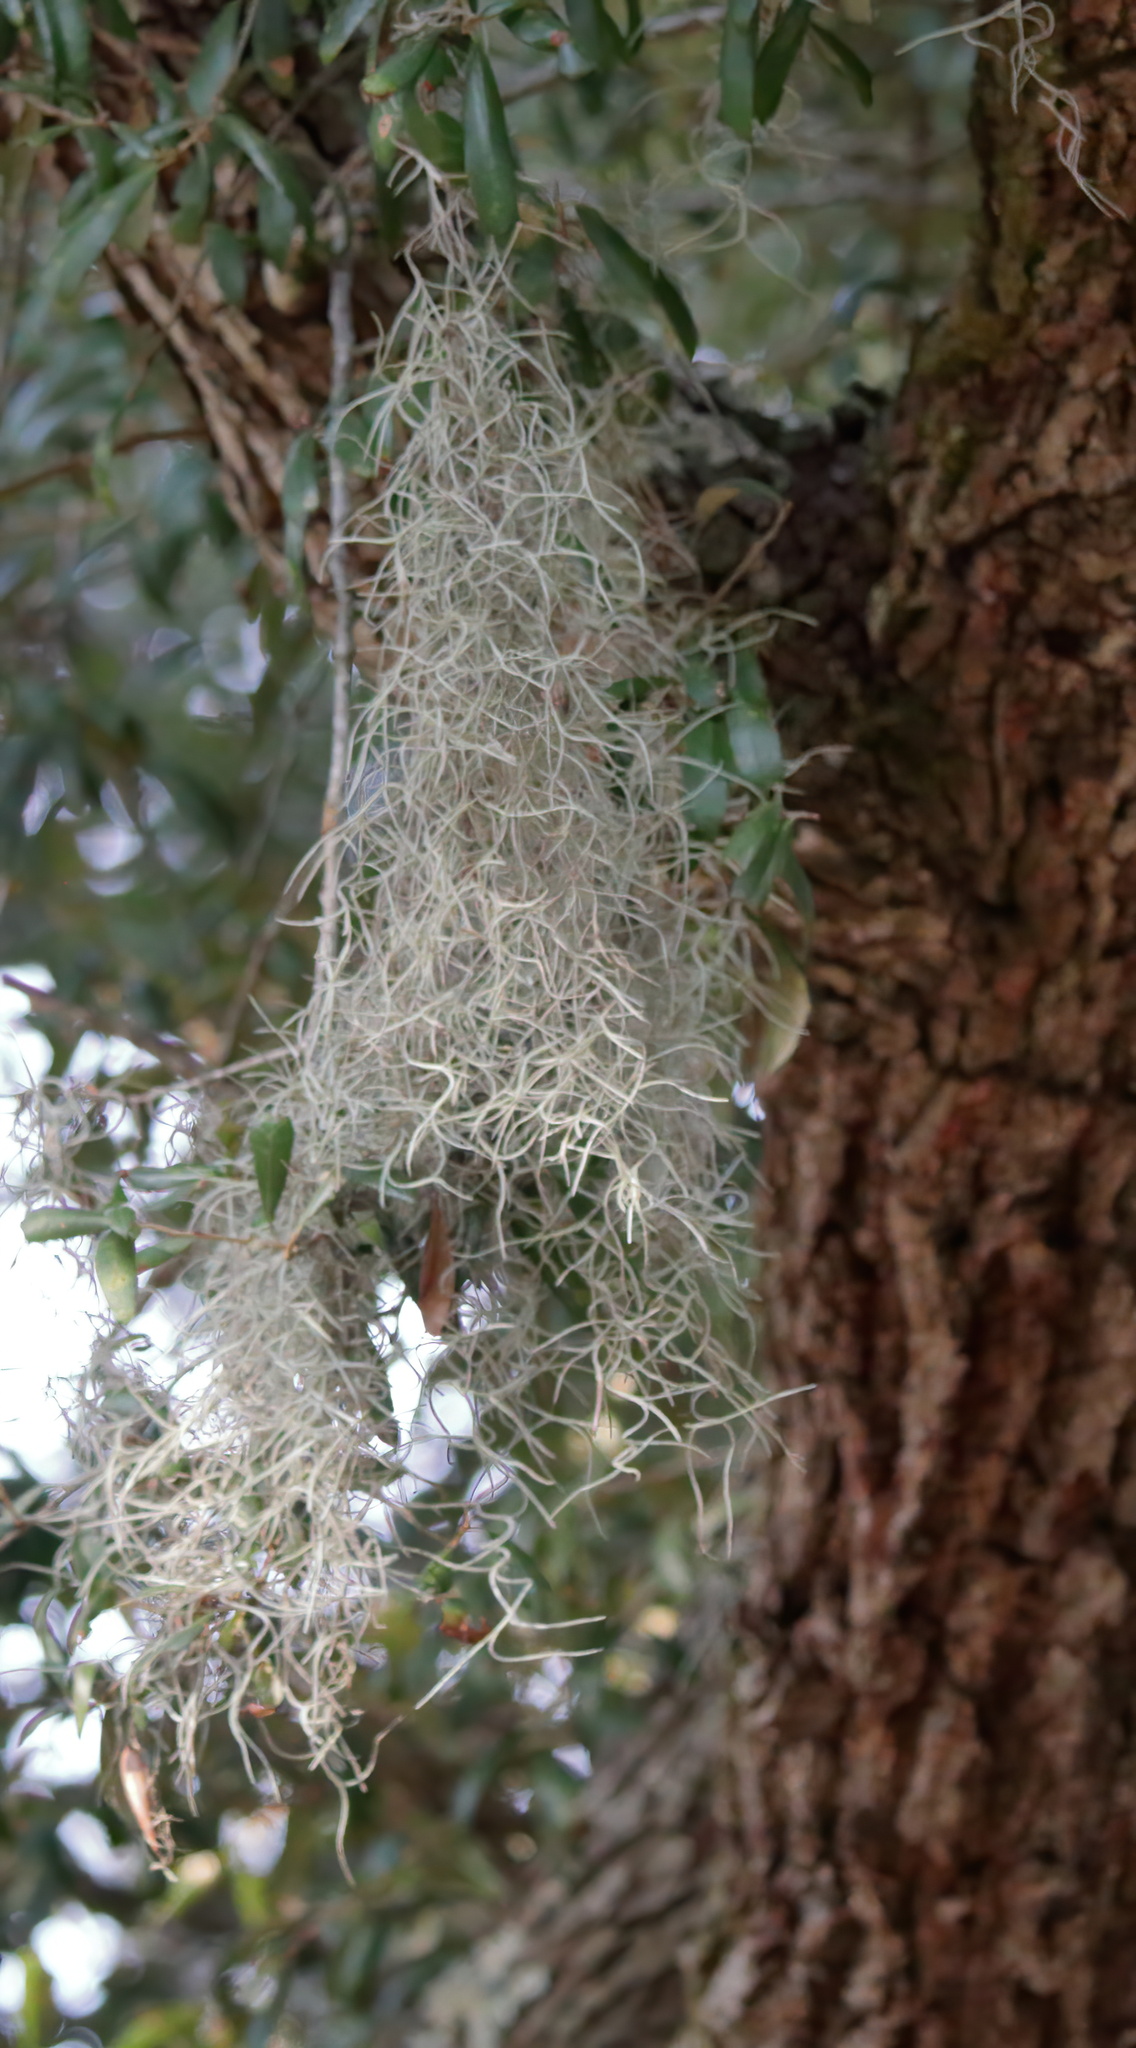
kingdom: Plantae
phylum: Tracheophyta
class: Liliopsida
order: Poales
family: Bromeliaceae
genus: Tillandsia
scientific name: Tillandsia usneoides
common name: Spanish moss
